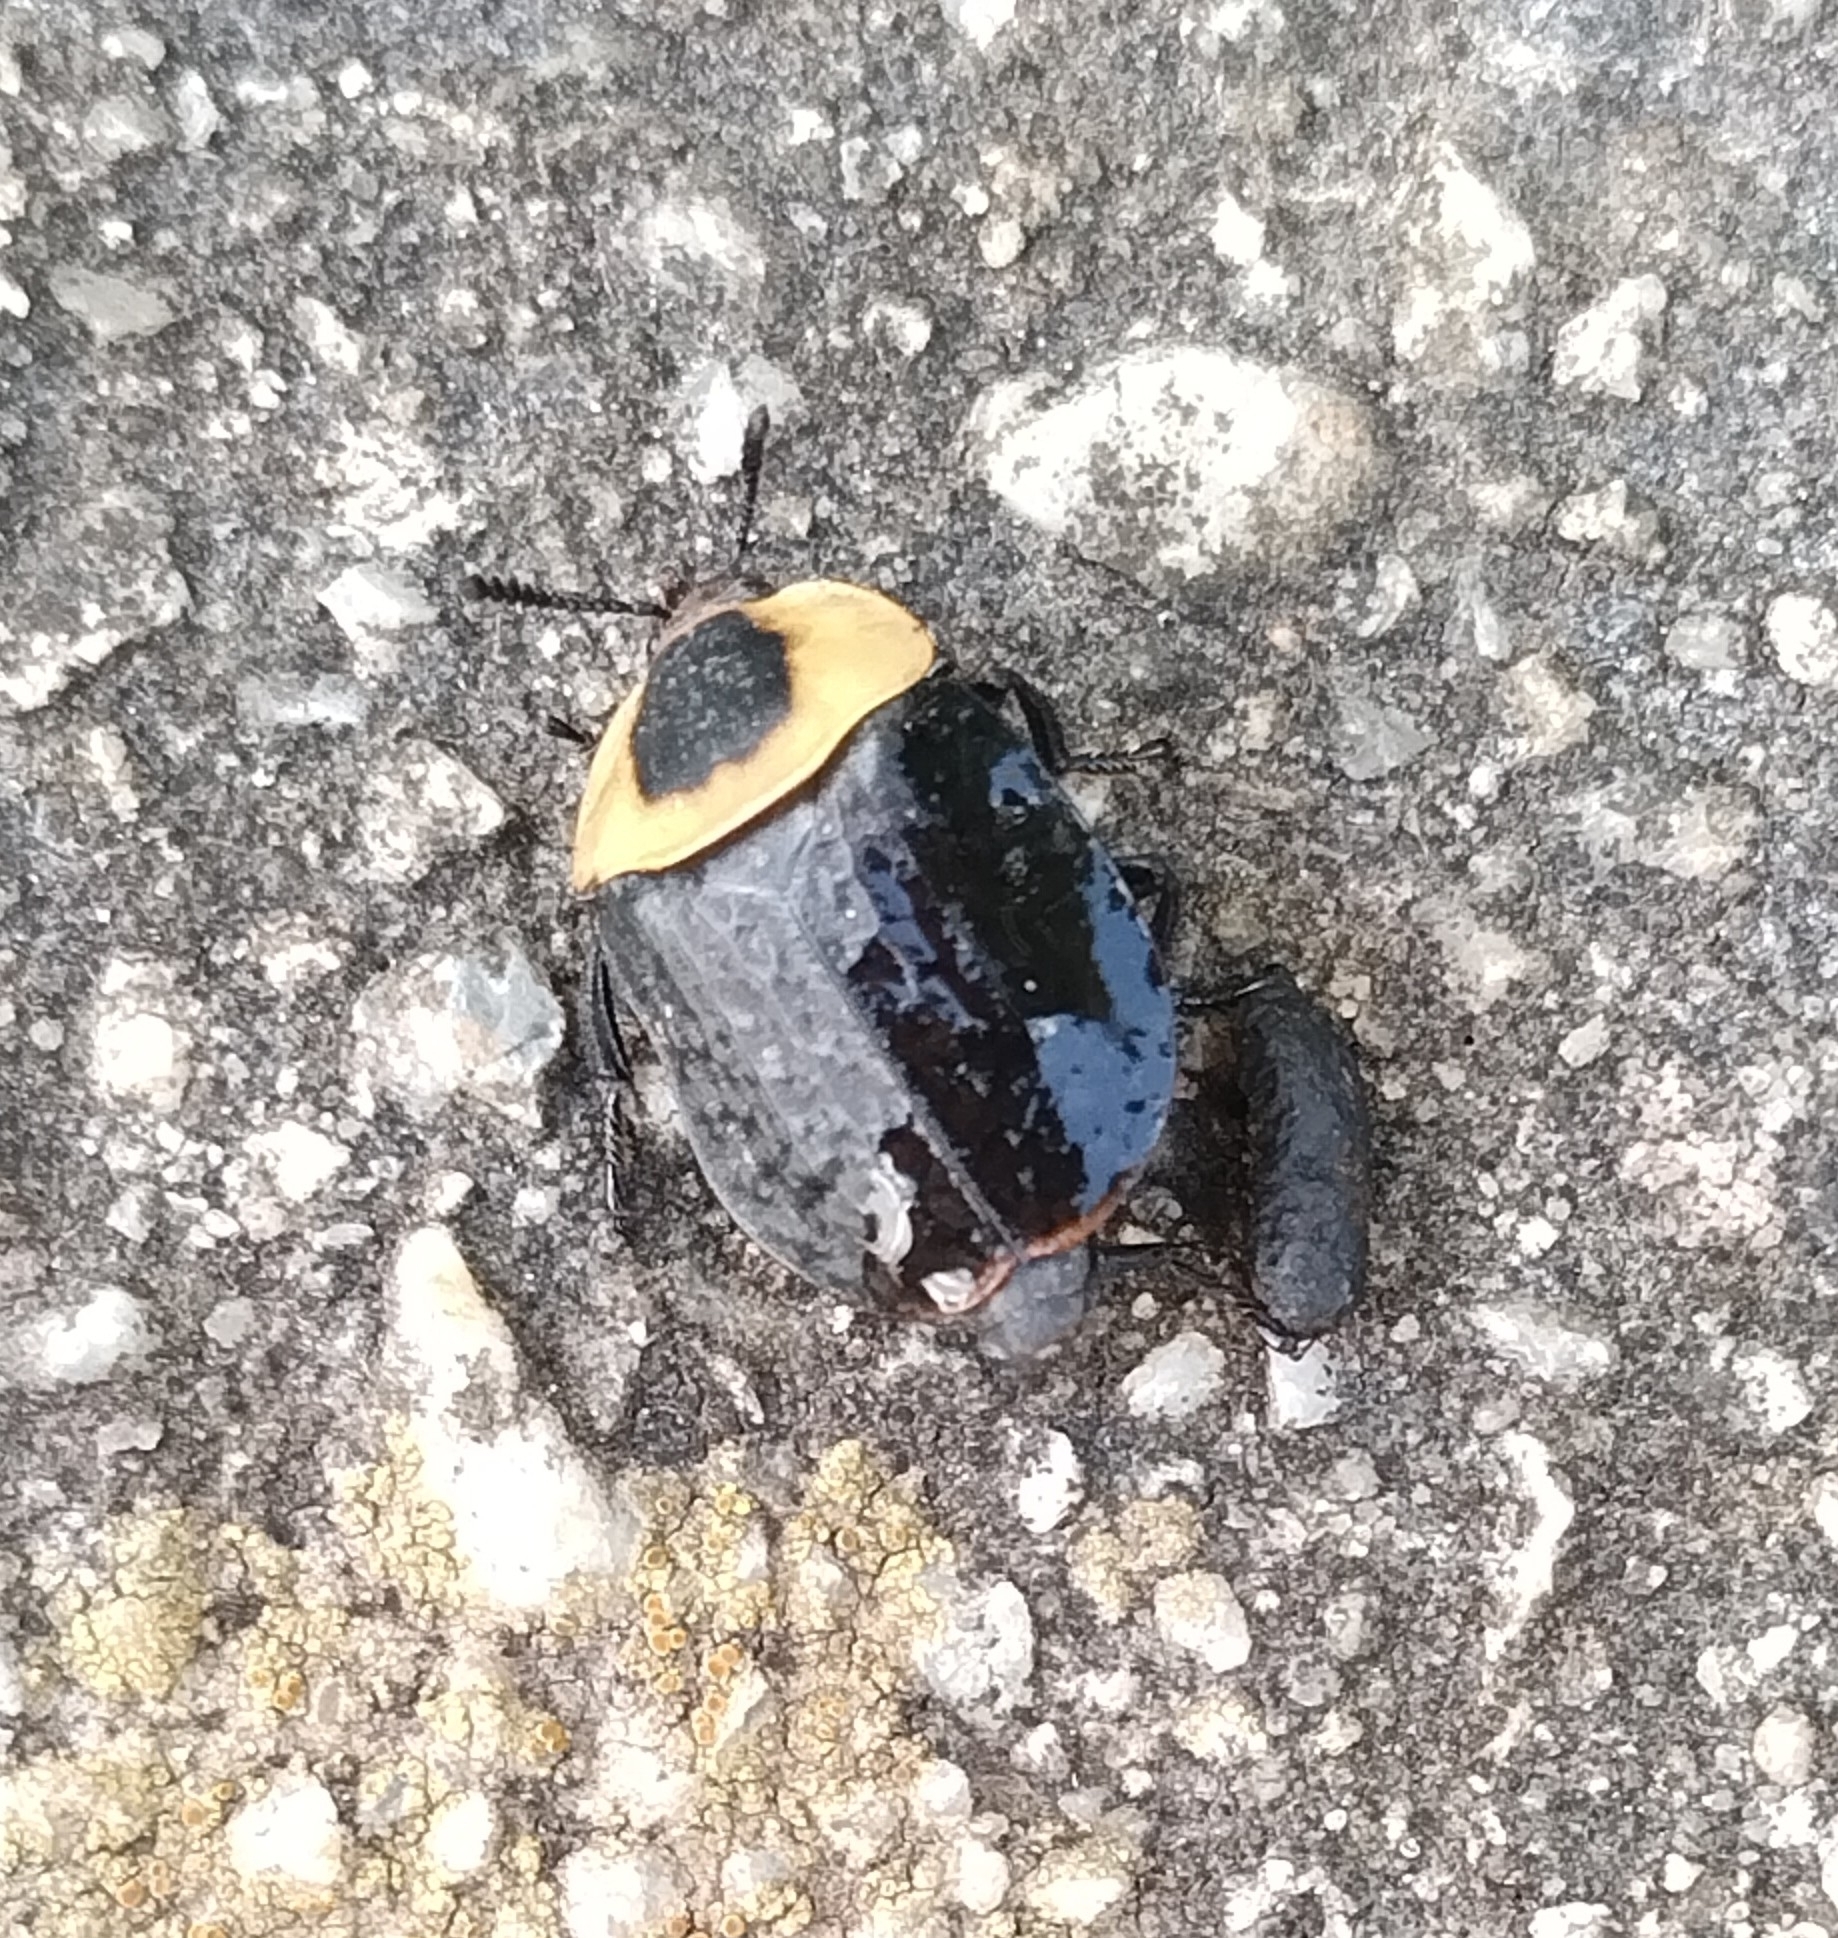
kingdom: Animalia
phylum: Arthropoda
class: Insecta
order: Coleoptera
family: Staphylinidae
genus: Necrophila
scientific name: Necrophila americana
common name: American carrion beetle
